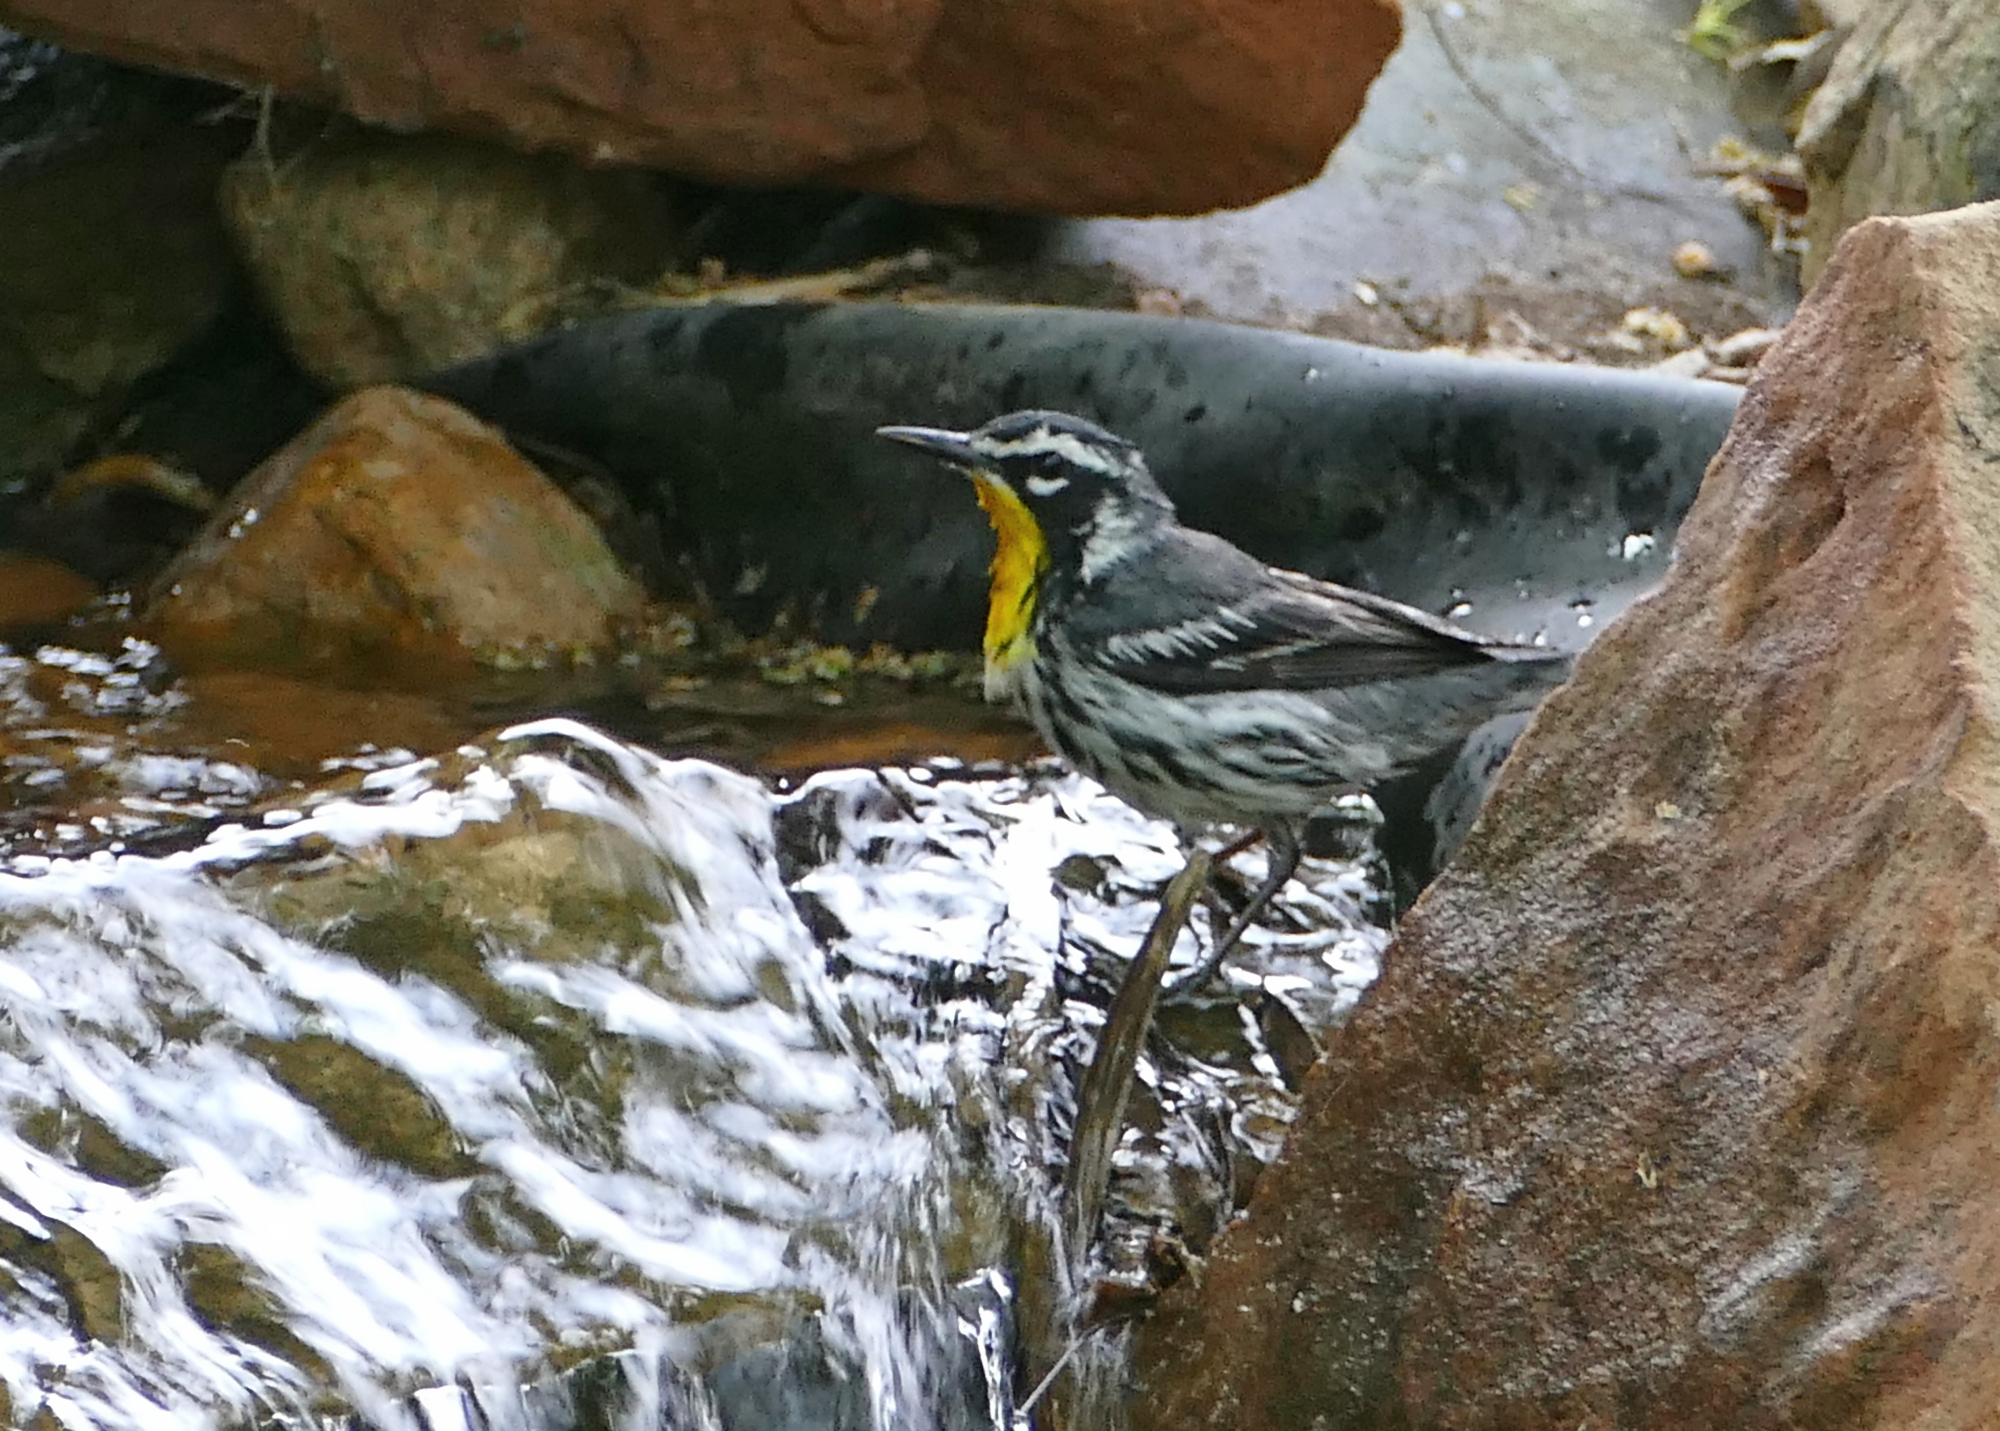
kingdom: Animalia
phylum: Chordata
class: Aves
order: Passeriformes
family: Parulidae
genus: Setophaga
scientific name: Setophaga dominica
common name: Yellow-throated warbler
